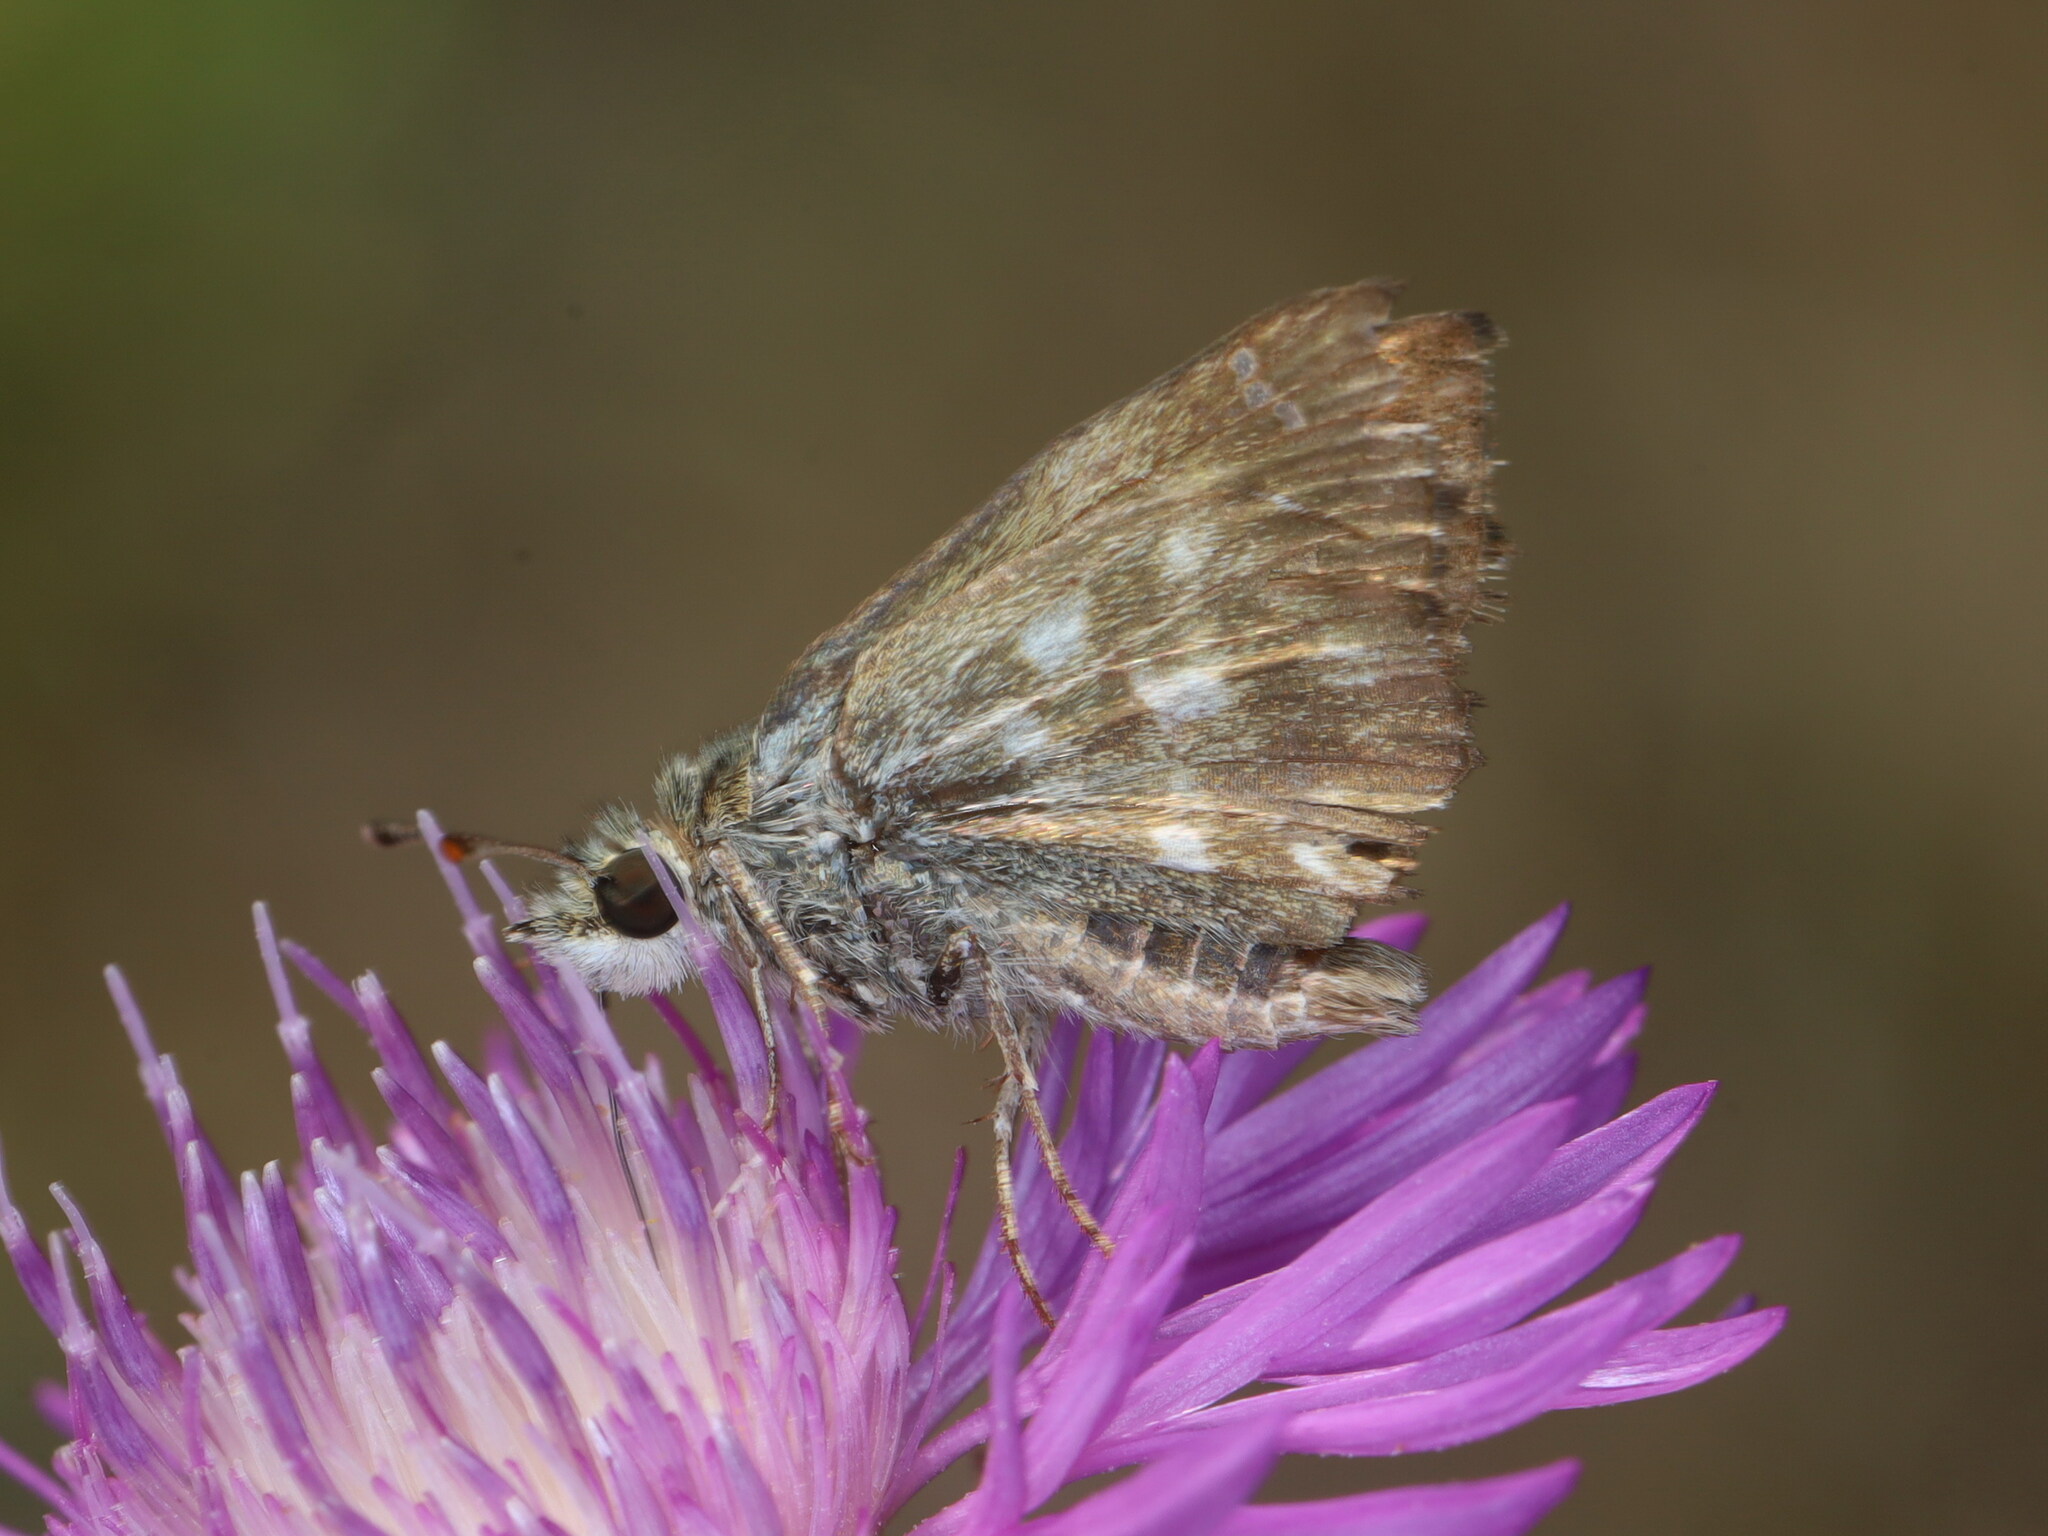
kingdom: Animalia
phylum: Arthropoda
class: Insecta
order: Lepidoptera
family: Hesperiidae
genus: Carcharodus
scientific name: Carcharodus alceae
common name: Mallow skipper
